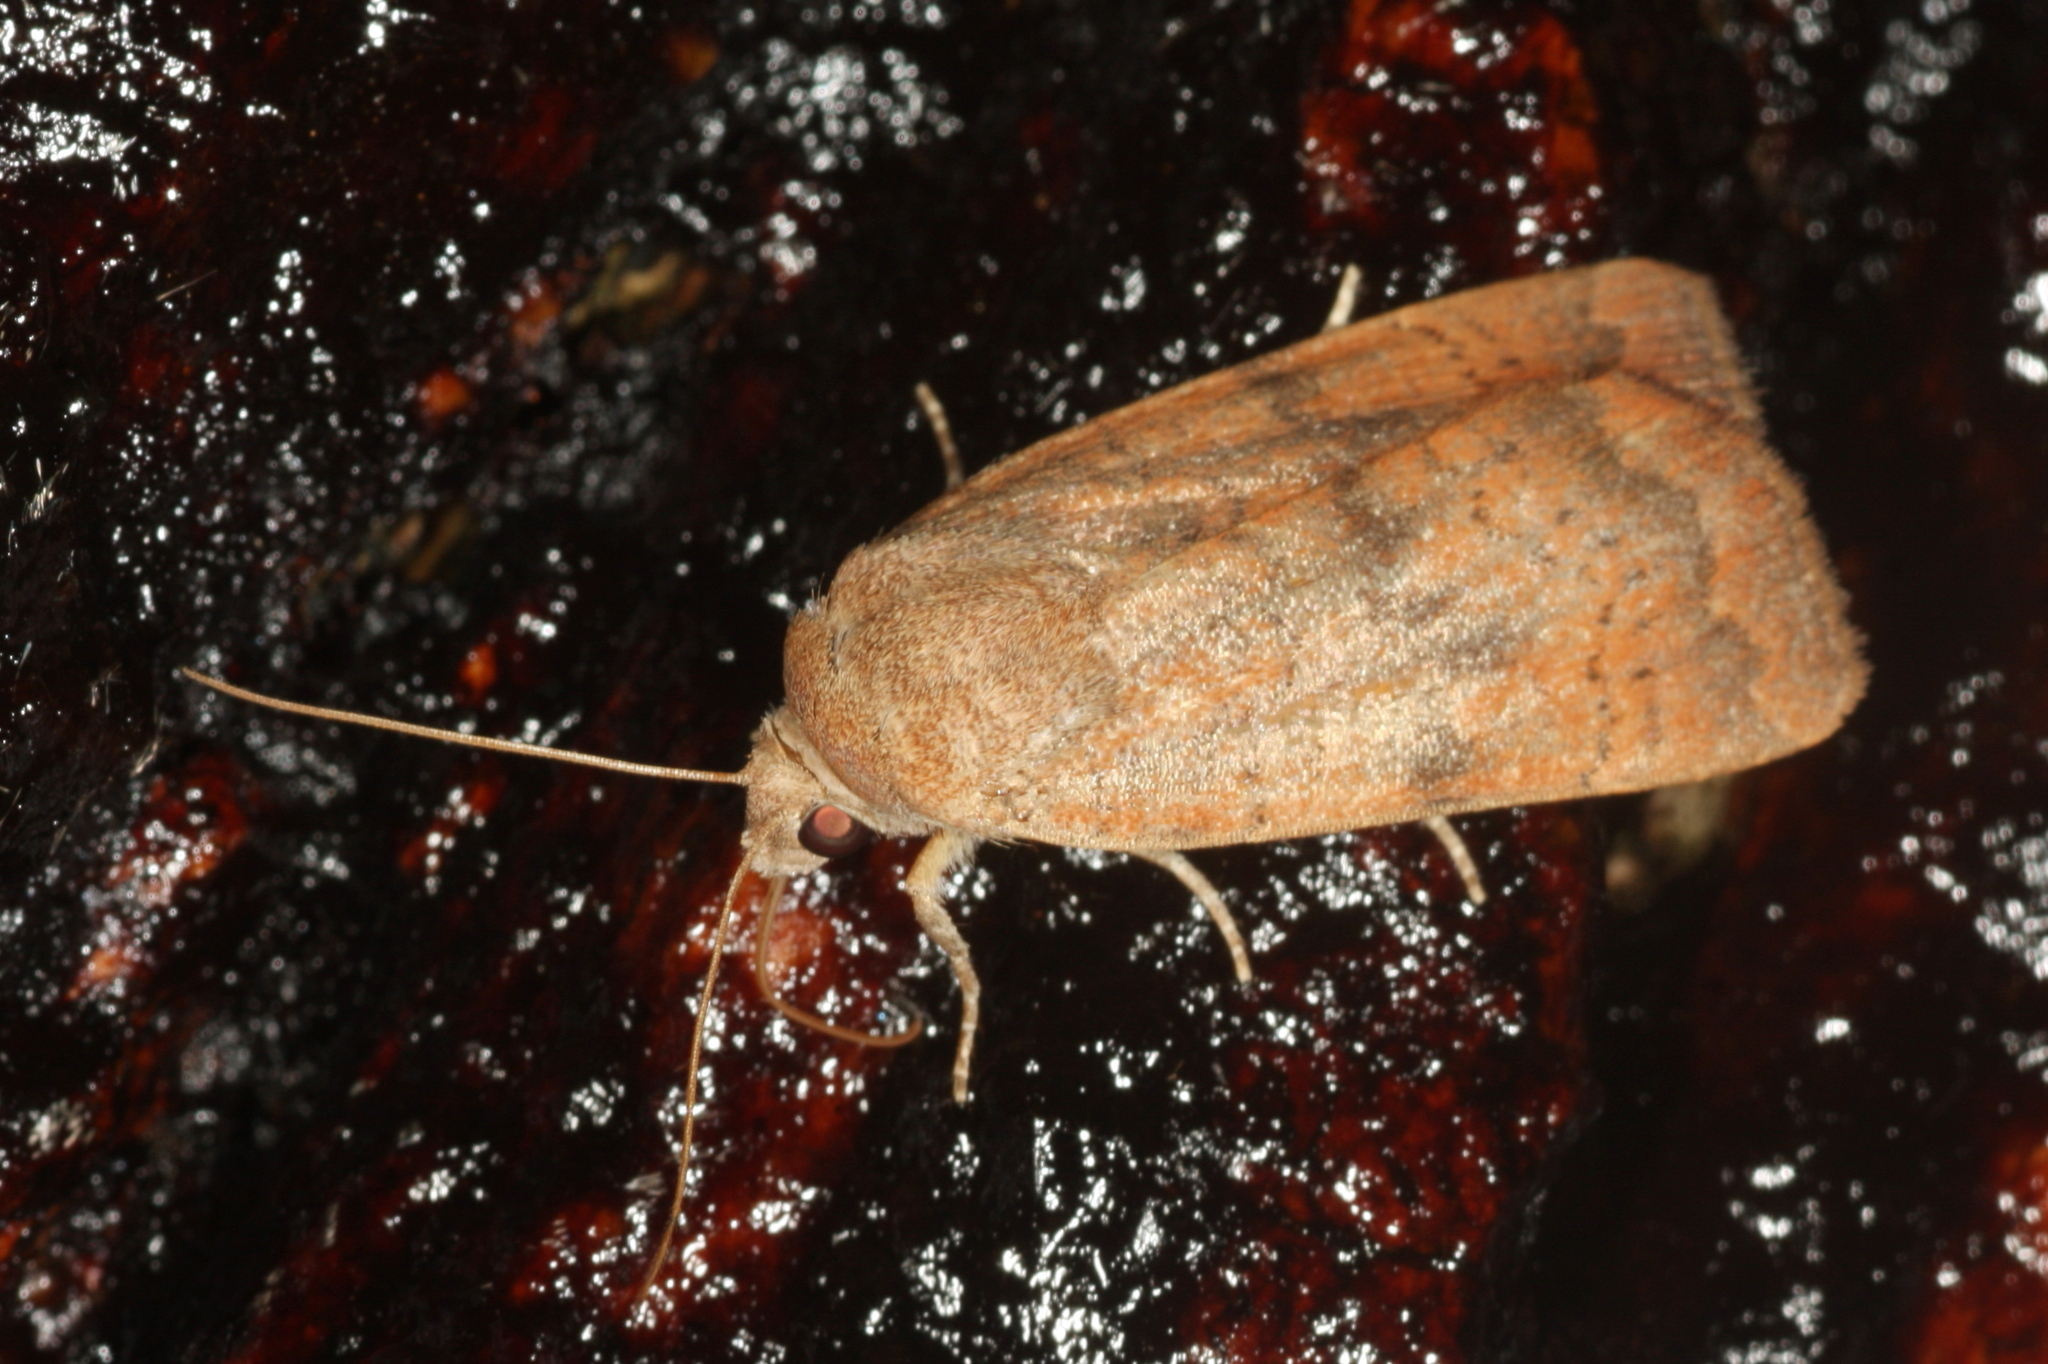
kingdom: Animalia
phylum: Arthropoda
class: Insecta
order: Lepidoptera
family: Noctuidae
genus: Noctua
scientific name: Noctua interjecta
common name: Least yellow underwing
